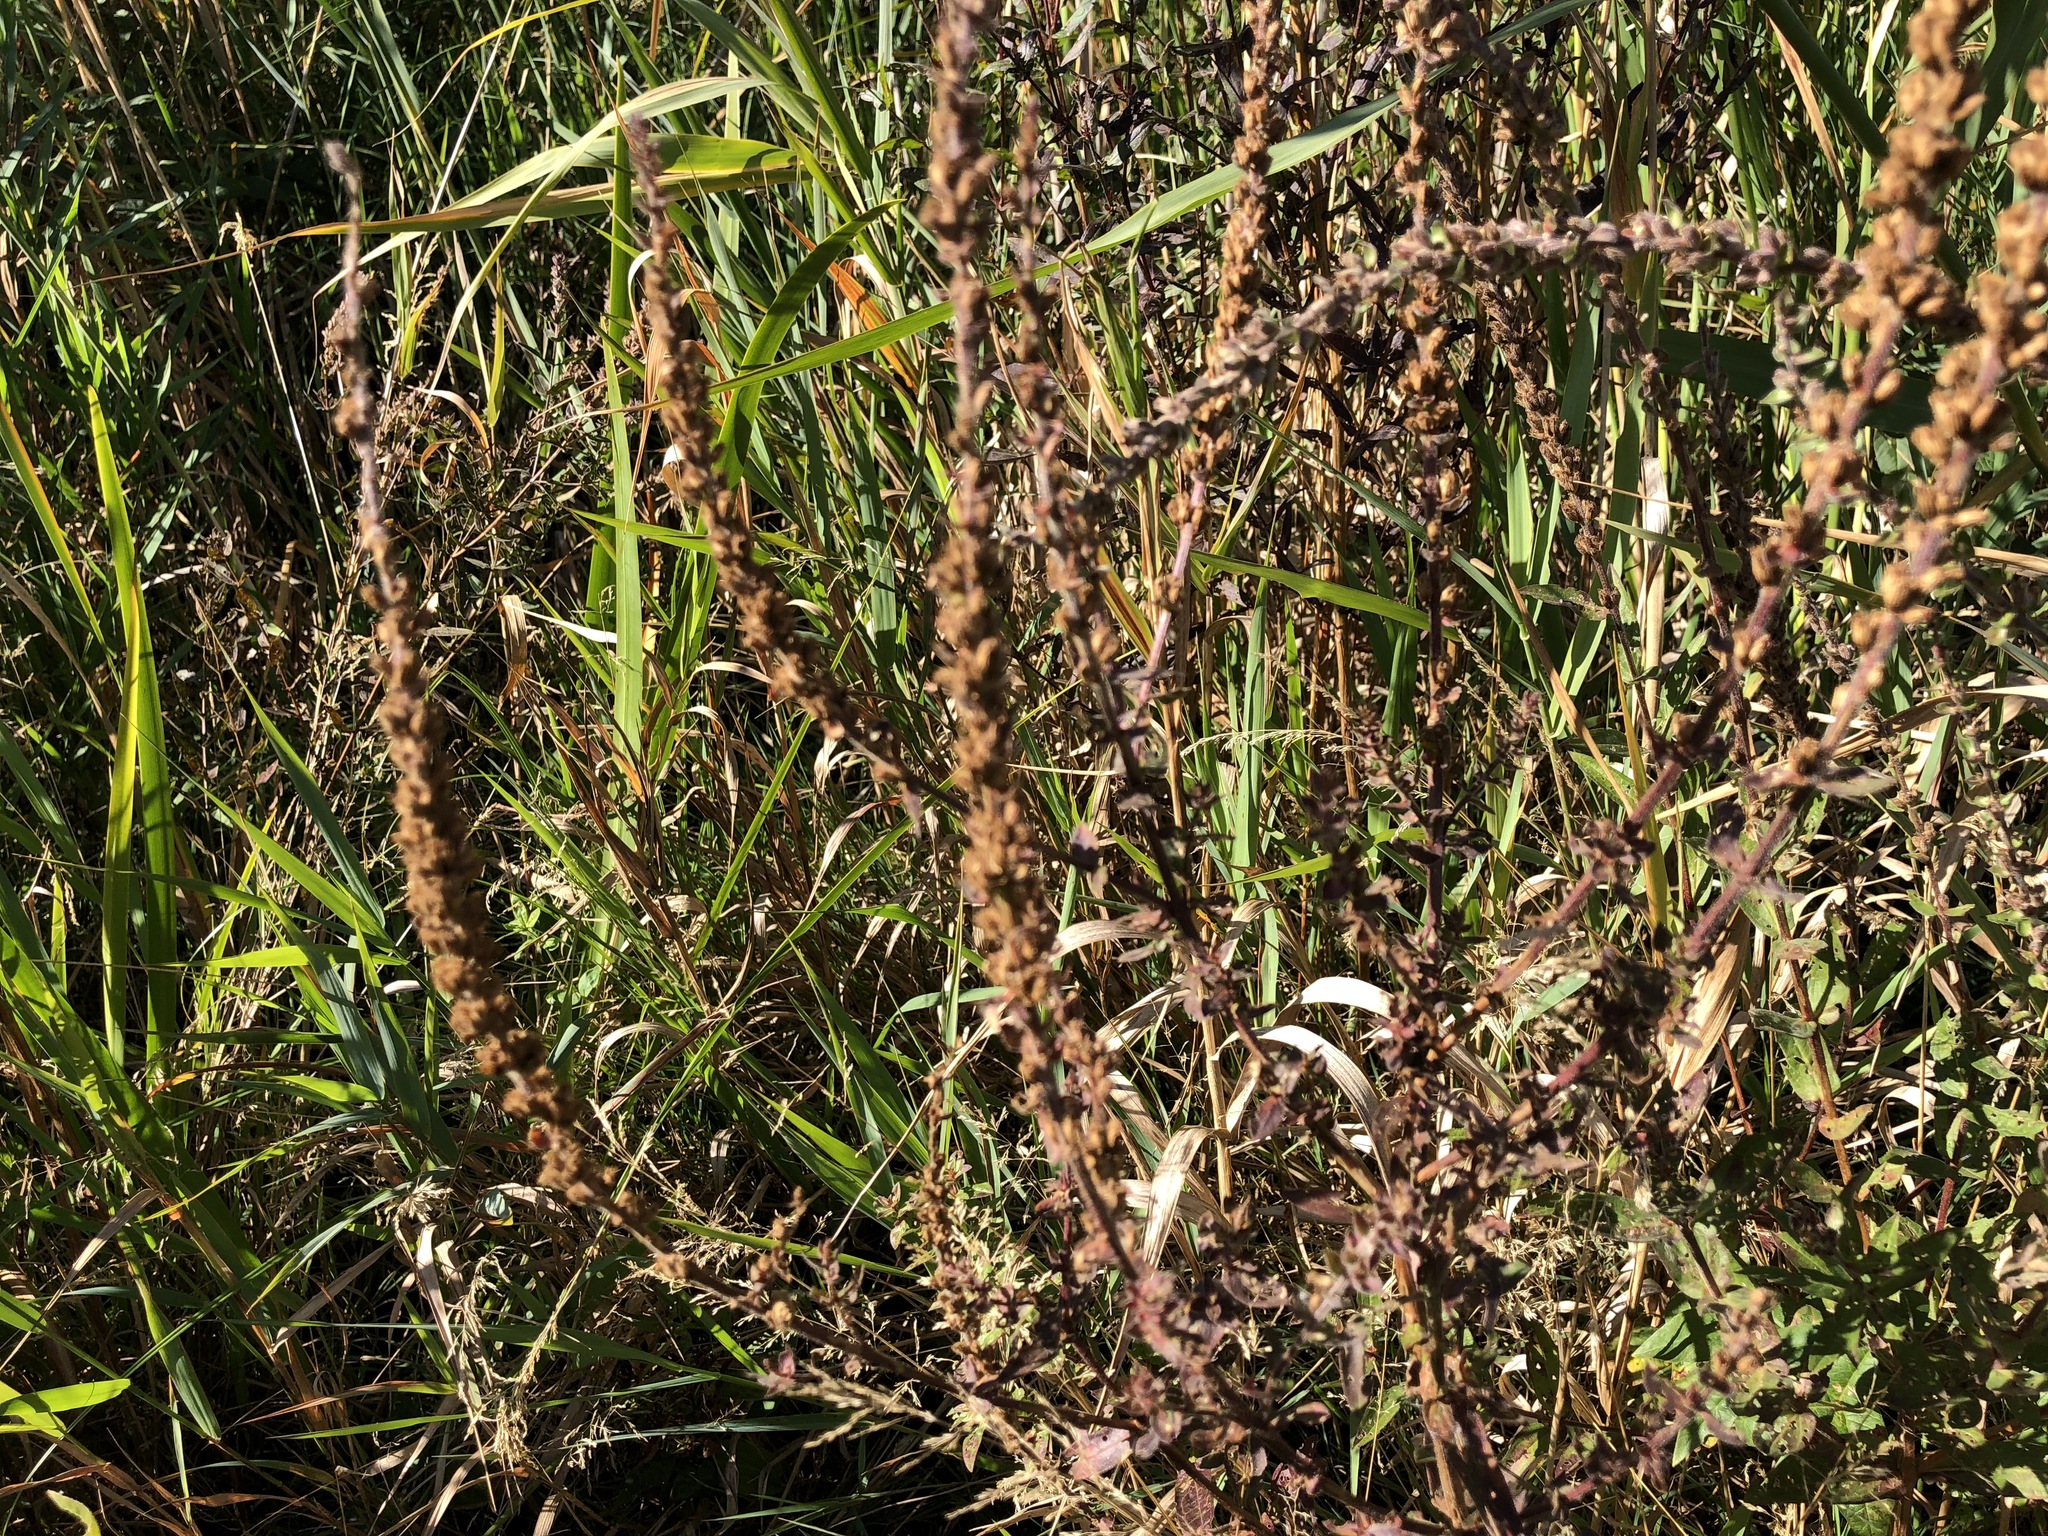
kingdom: Plantae
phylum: Tracheophyta
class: Magnoliopsida
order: Myrtales
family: Lythraceae
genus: Lythrum
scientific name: Lythrum salicaria
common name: Purple loosestrife
